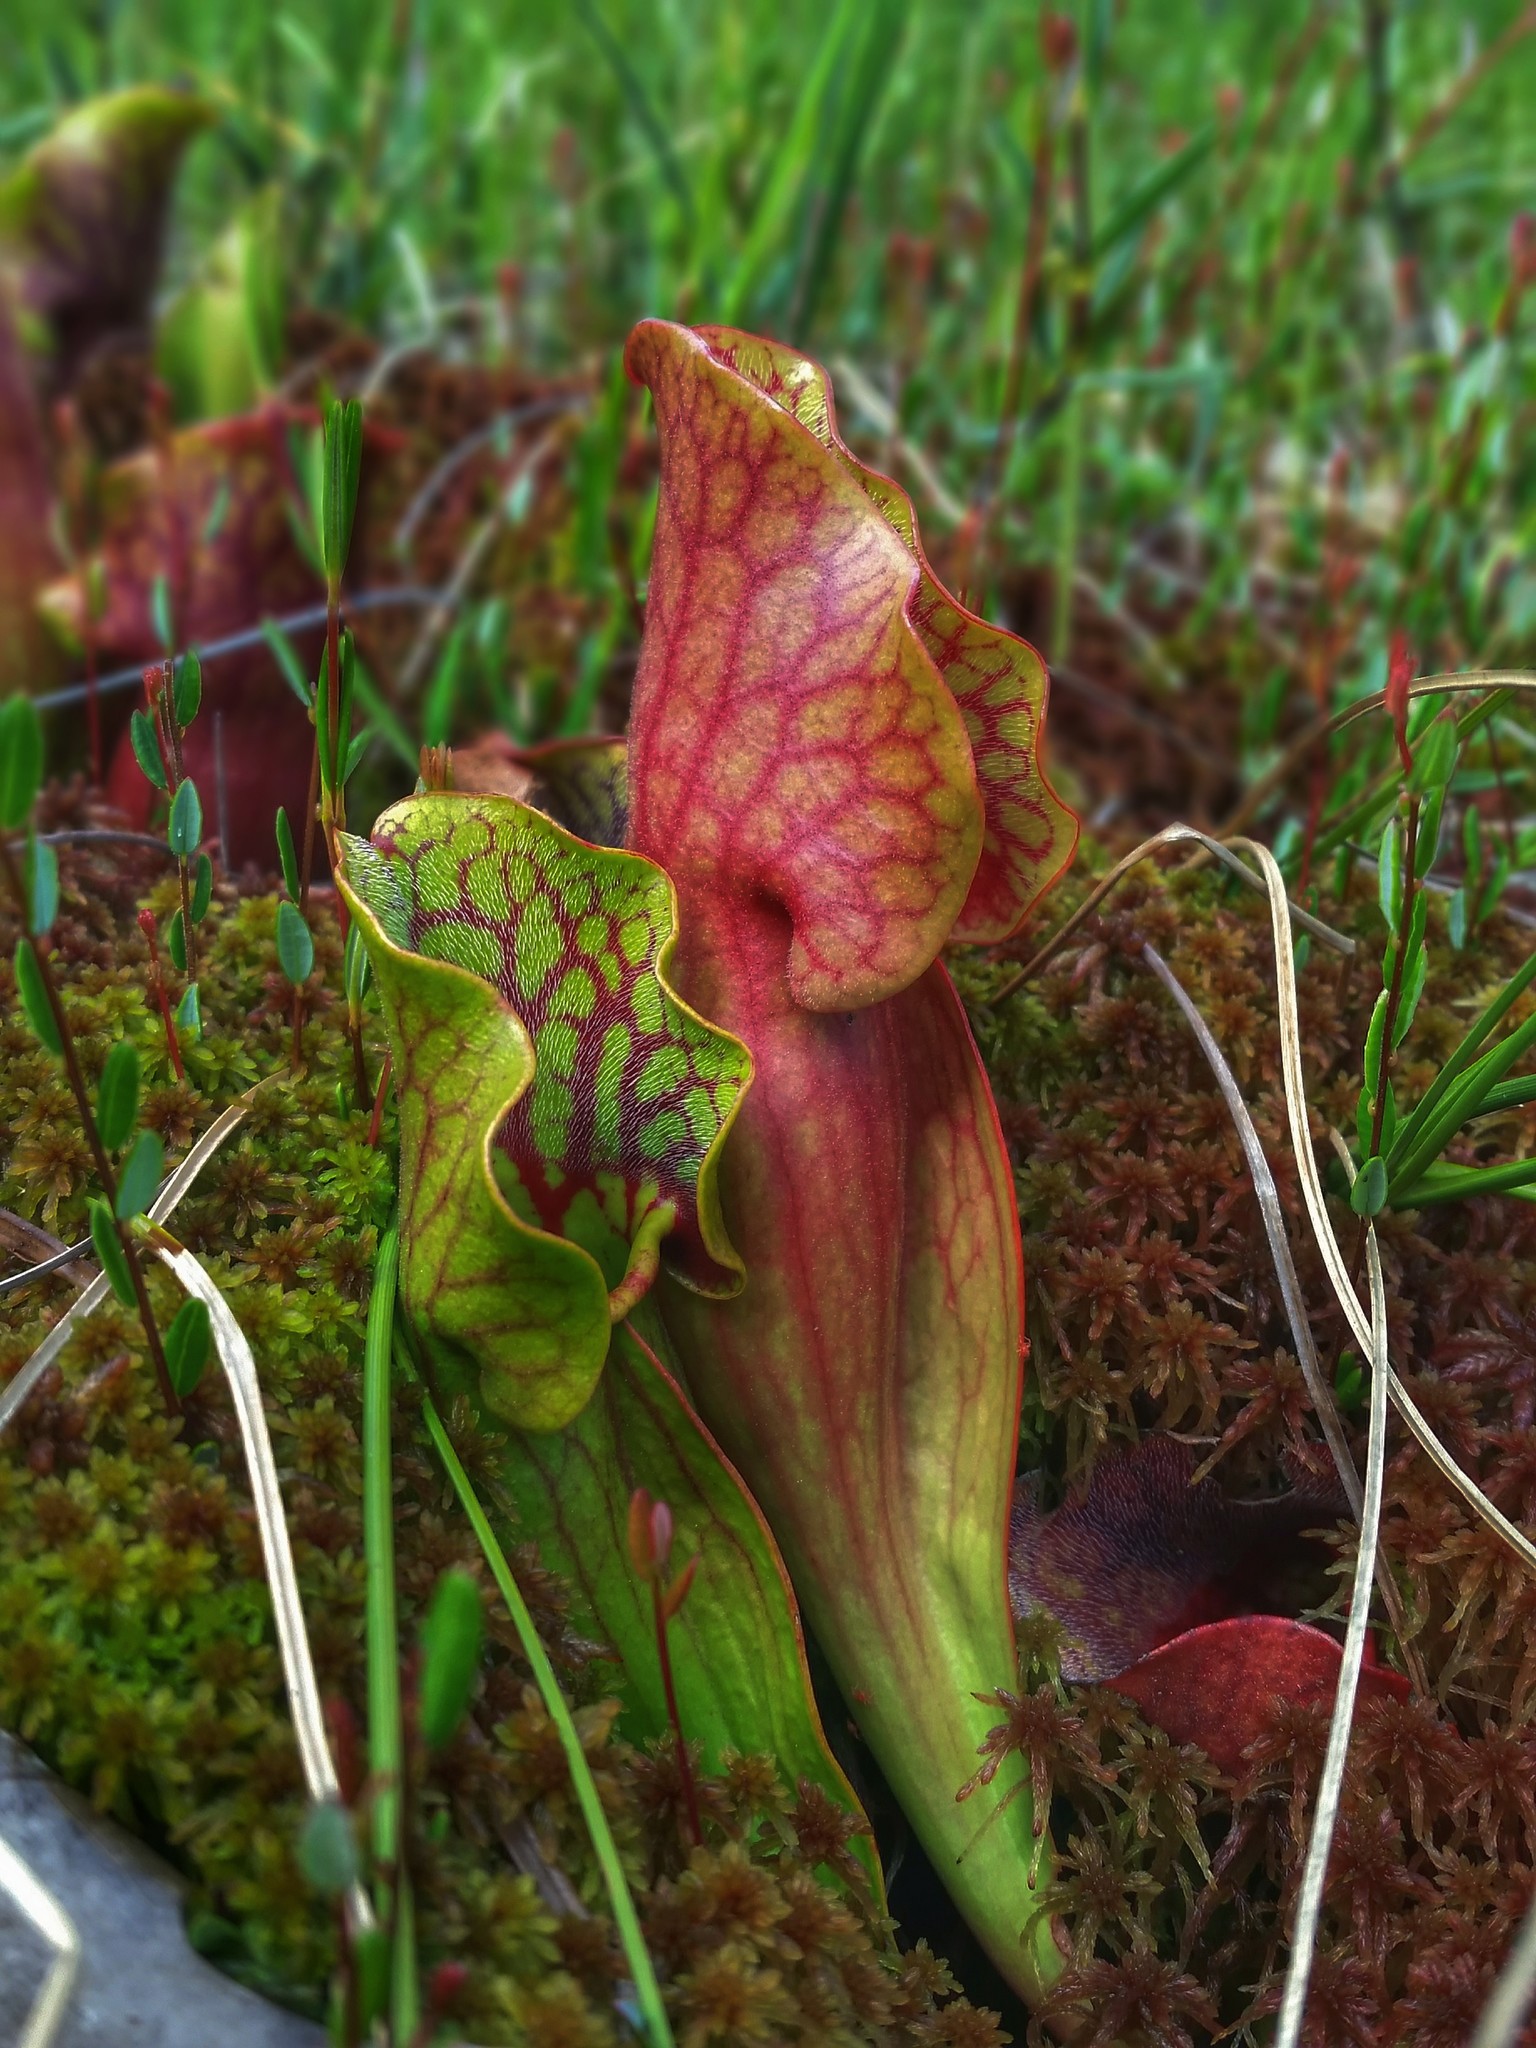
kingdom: Plantae
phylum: Tracheophyta
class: Magnoliopsida
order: Ericales
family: Sarraceniaceae
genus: Sarracenia
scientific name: Sarracenia purpurea
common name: Pitcherplant
